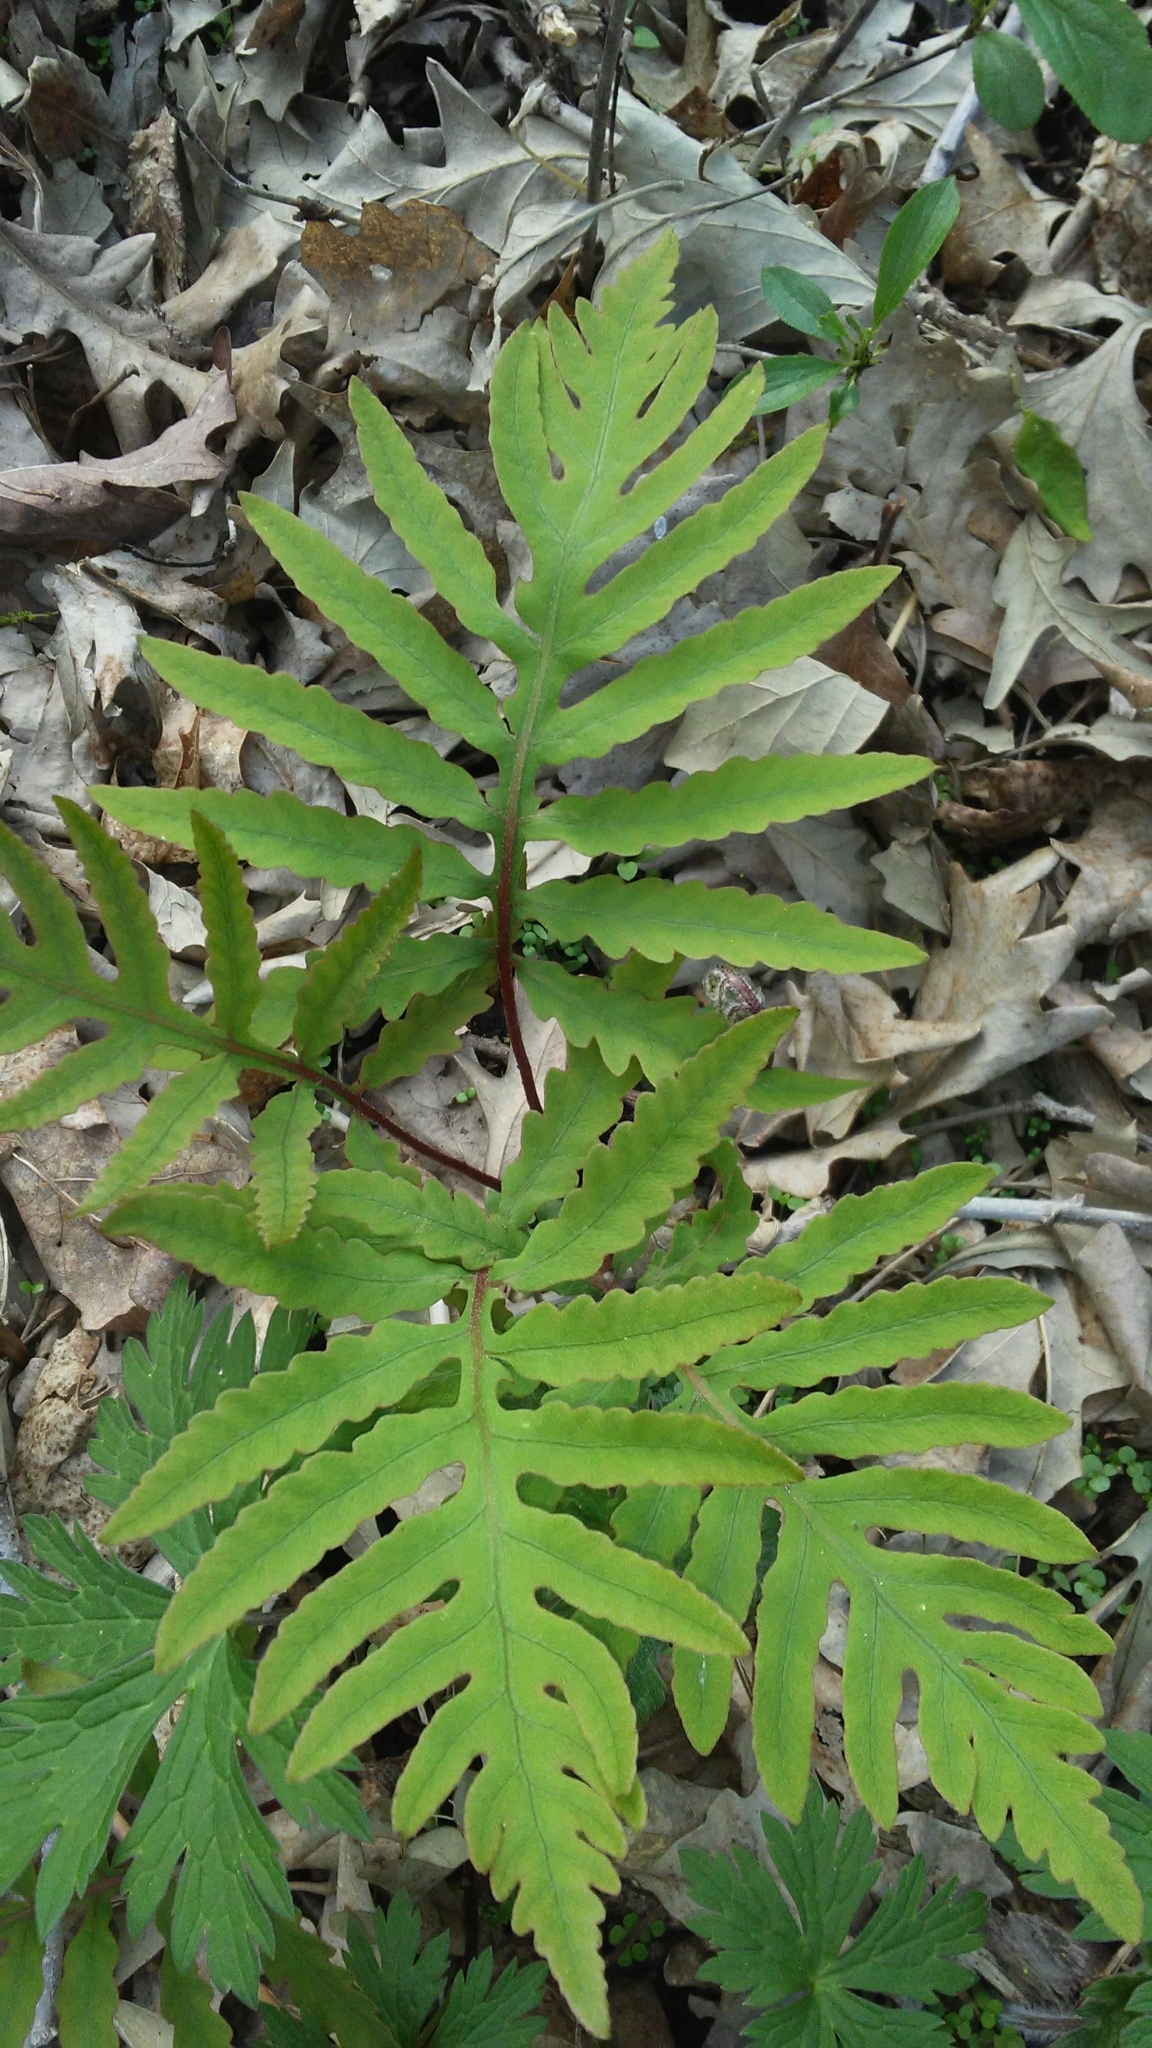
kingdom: Plantae
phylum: Tracheophyta
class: Polypodiopsida
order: Polypodiales
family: Onocleaceae
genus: Onoclea
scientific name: Onoclea sensibilis
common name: Sensitive fern
